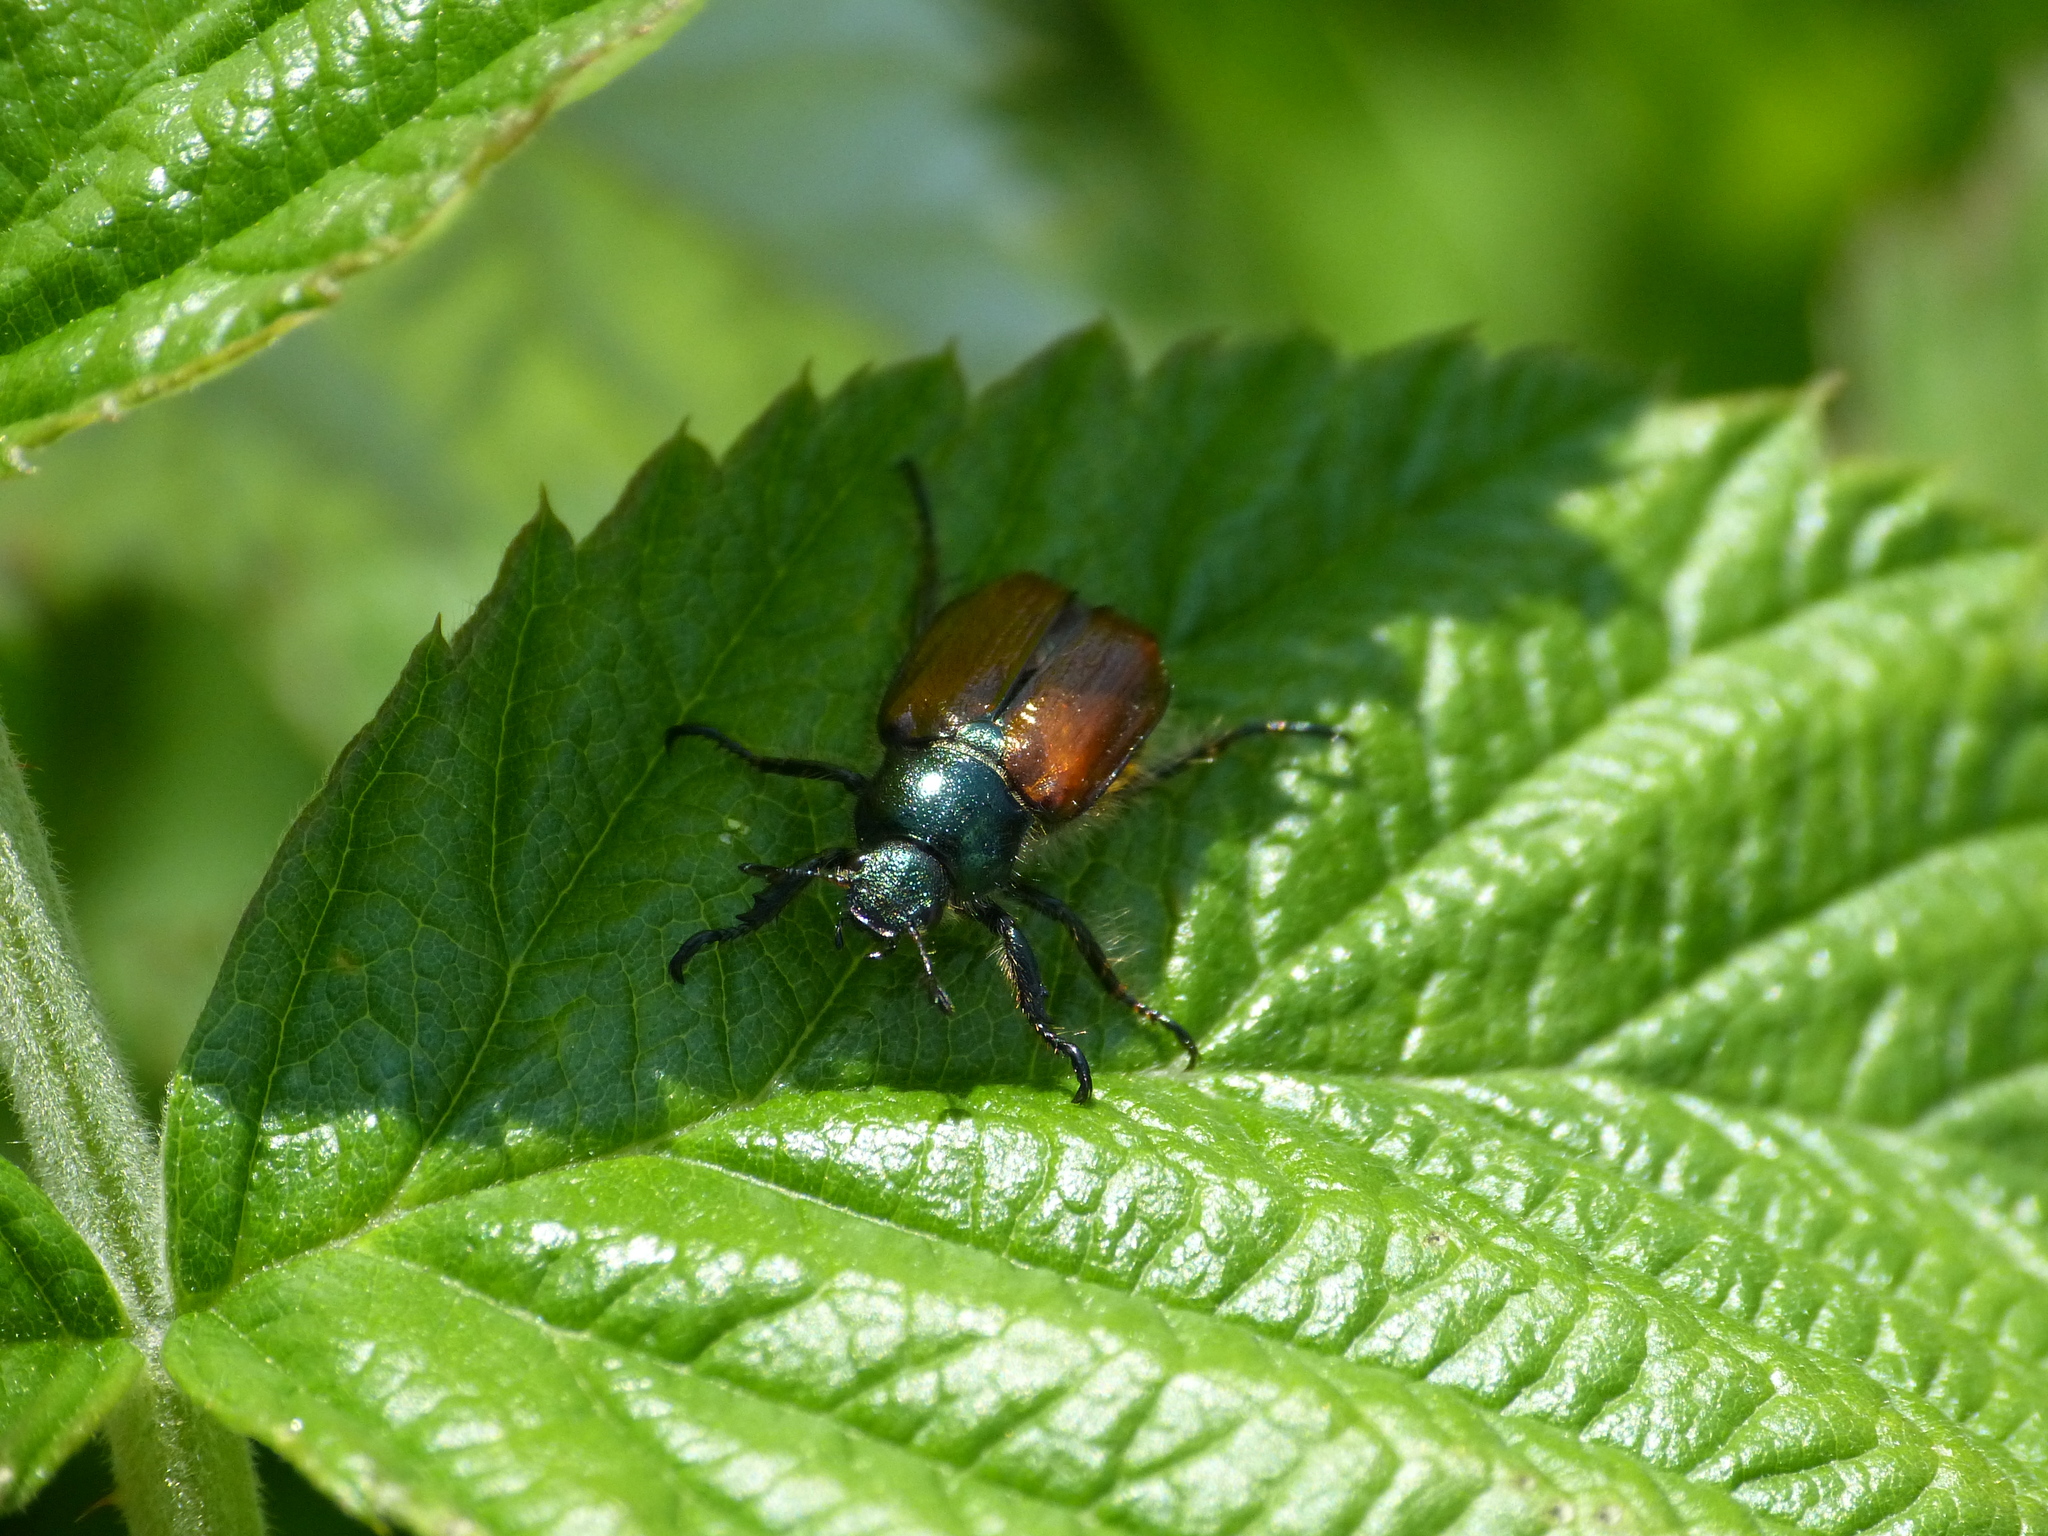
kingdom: Animalia
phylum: Arthropoda
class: Insecta
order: Coleoptera
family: Scarabaeidae
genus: Phyllopertha
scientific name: Phyllopertha horticola
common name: Garden chafer
